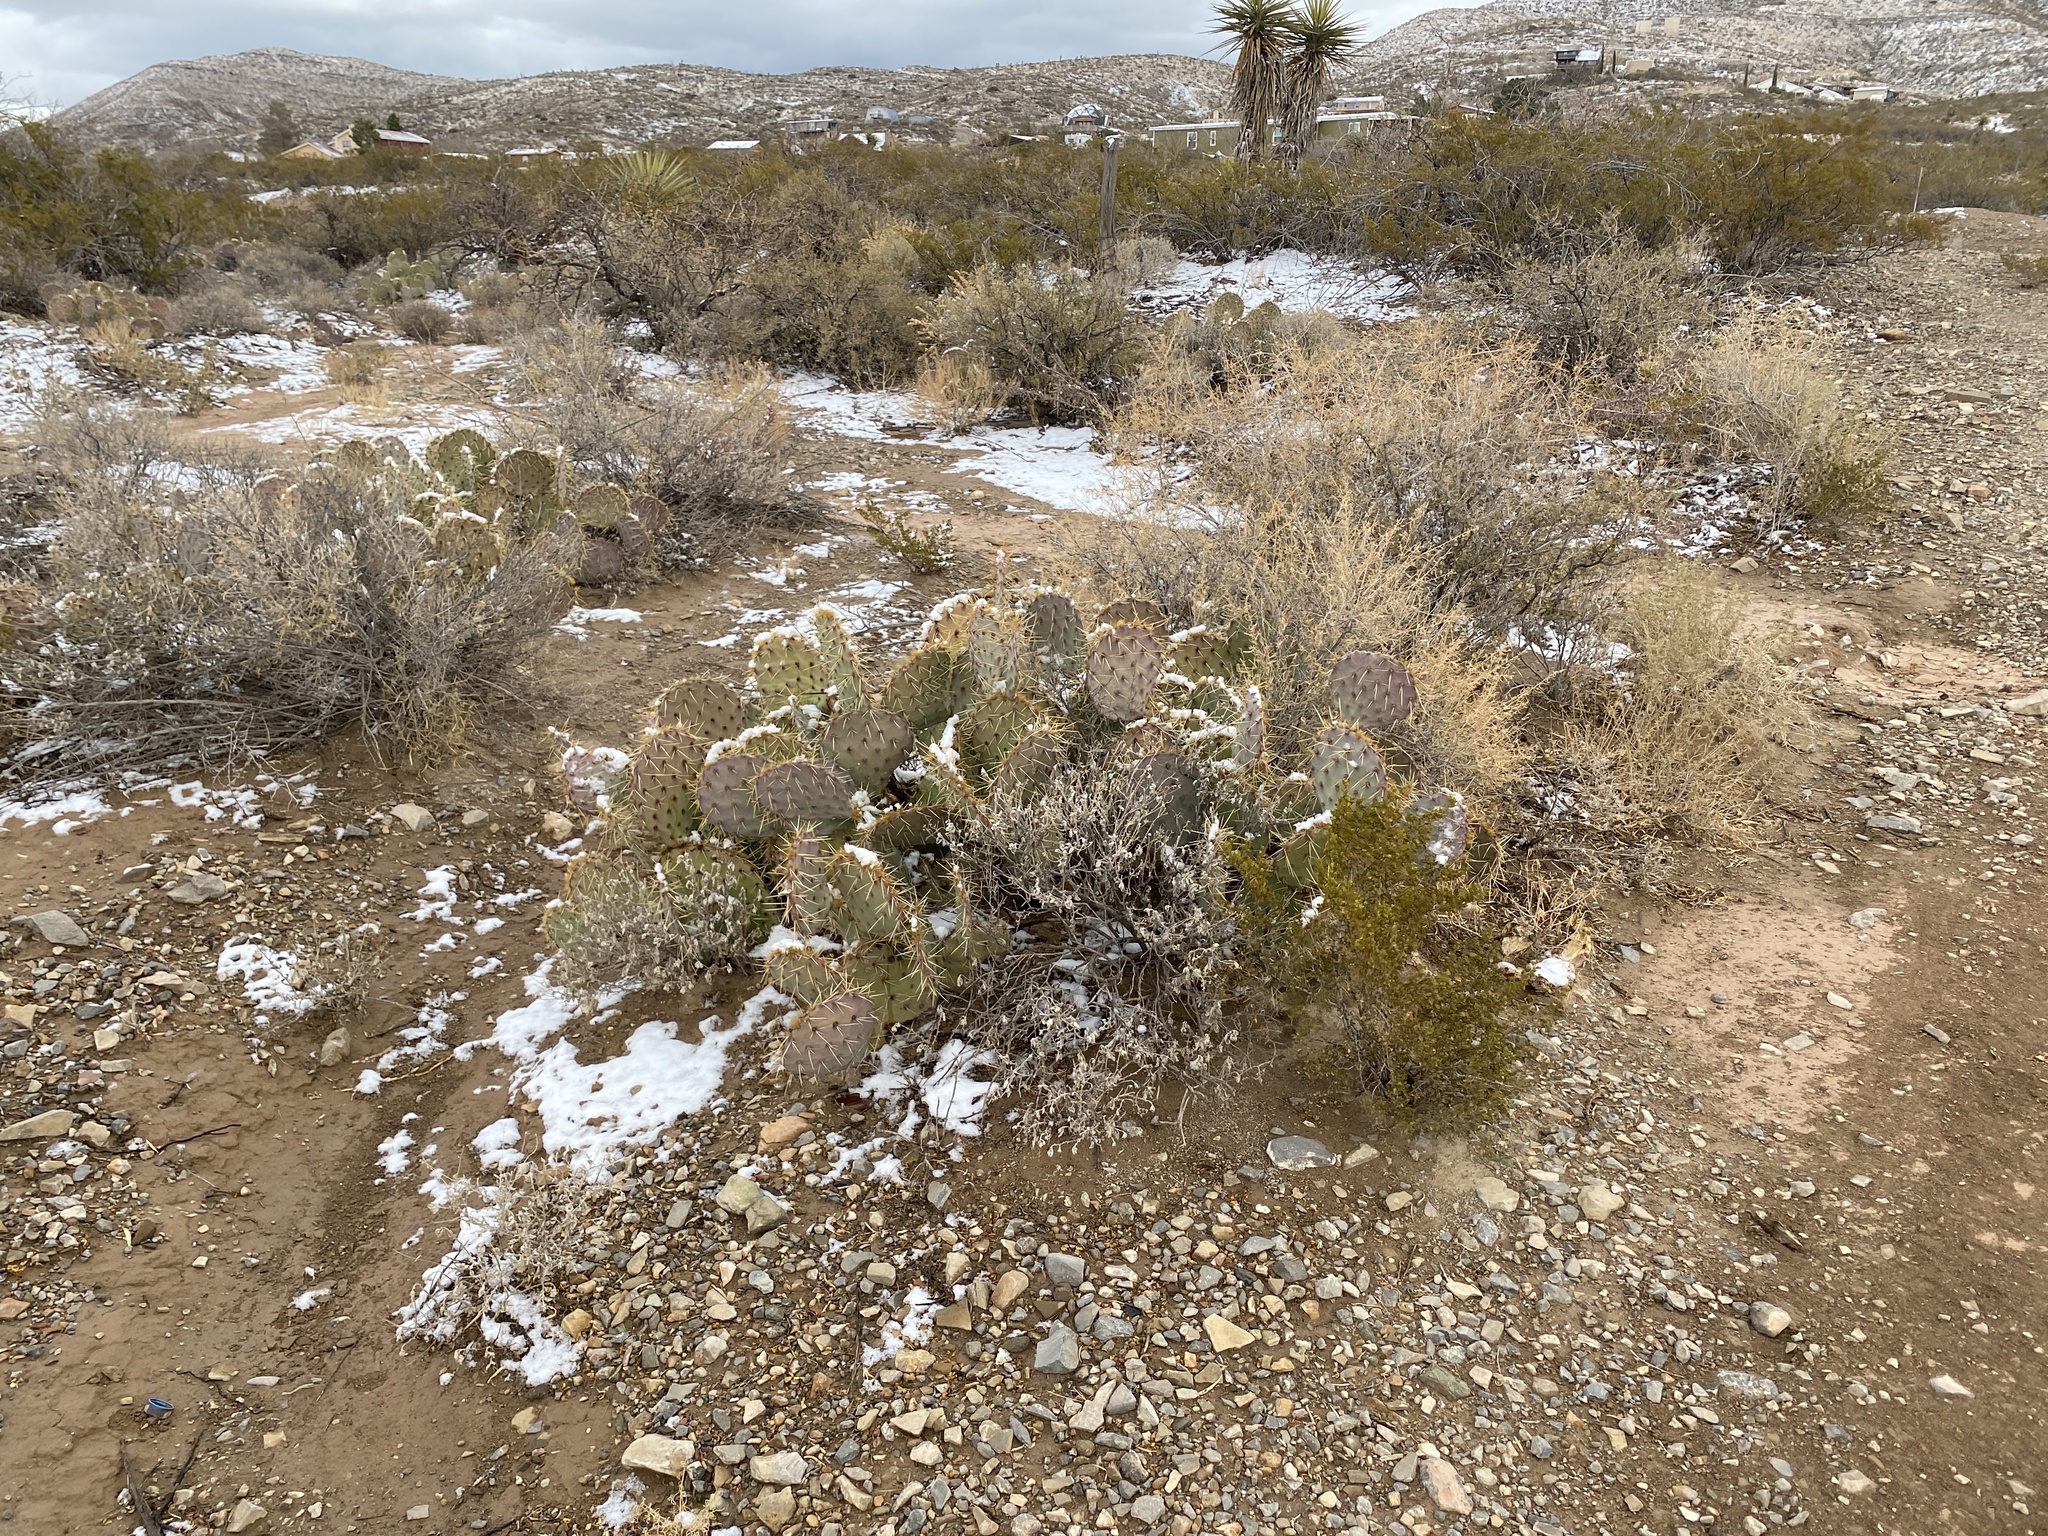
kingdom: Plantae
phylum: Tracheophyta
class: Magnoliopsida
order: Caryophyllales
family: Cactaceae
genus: Opuntia
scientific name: Opuntia engelmannii
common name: Cactus-apple
